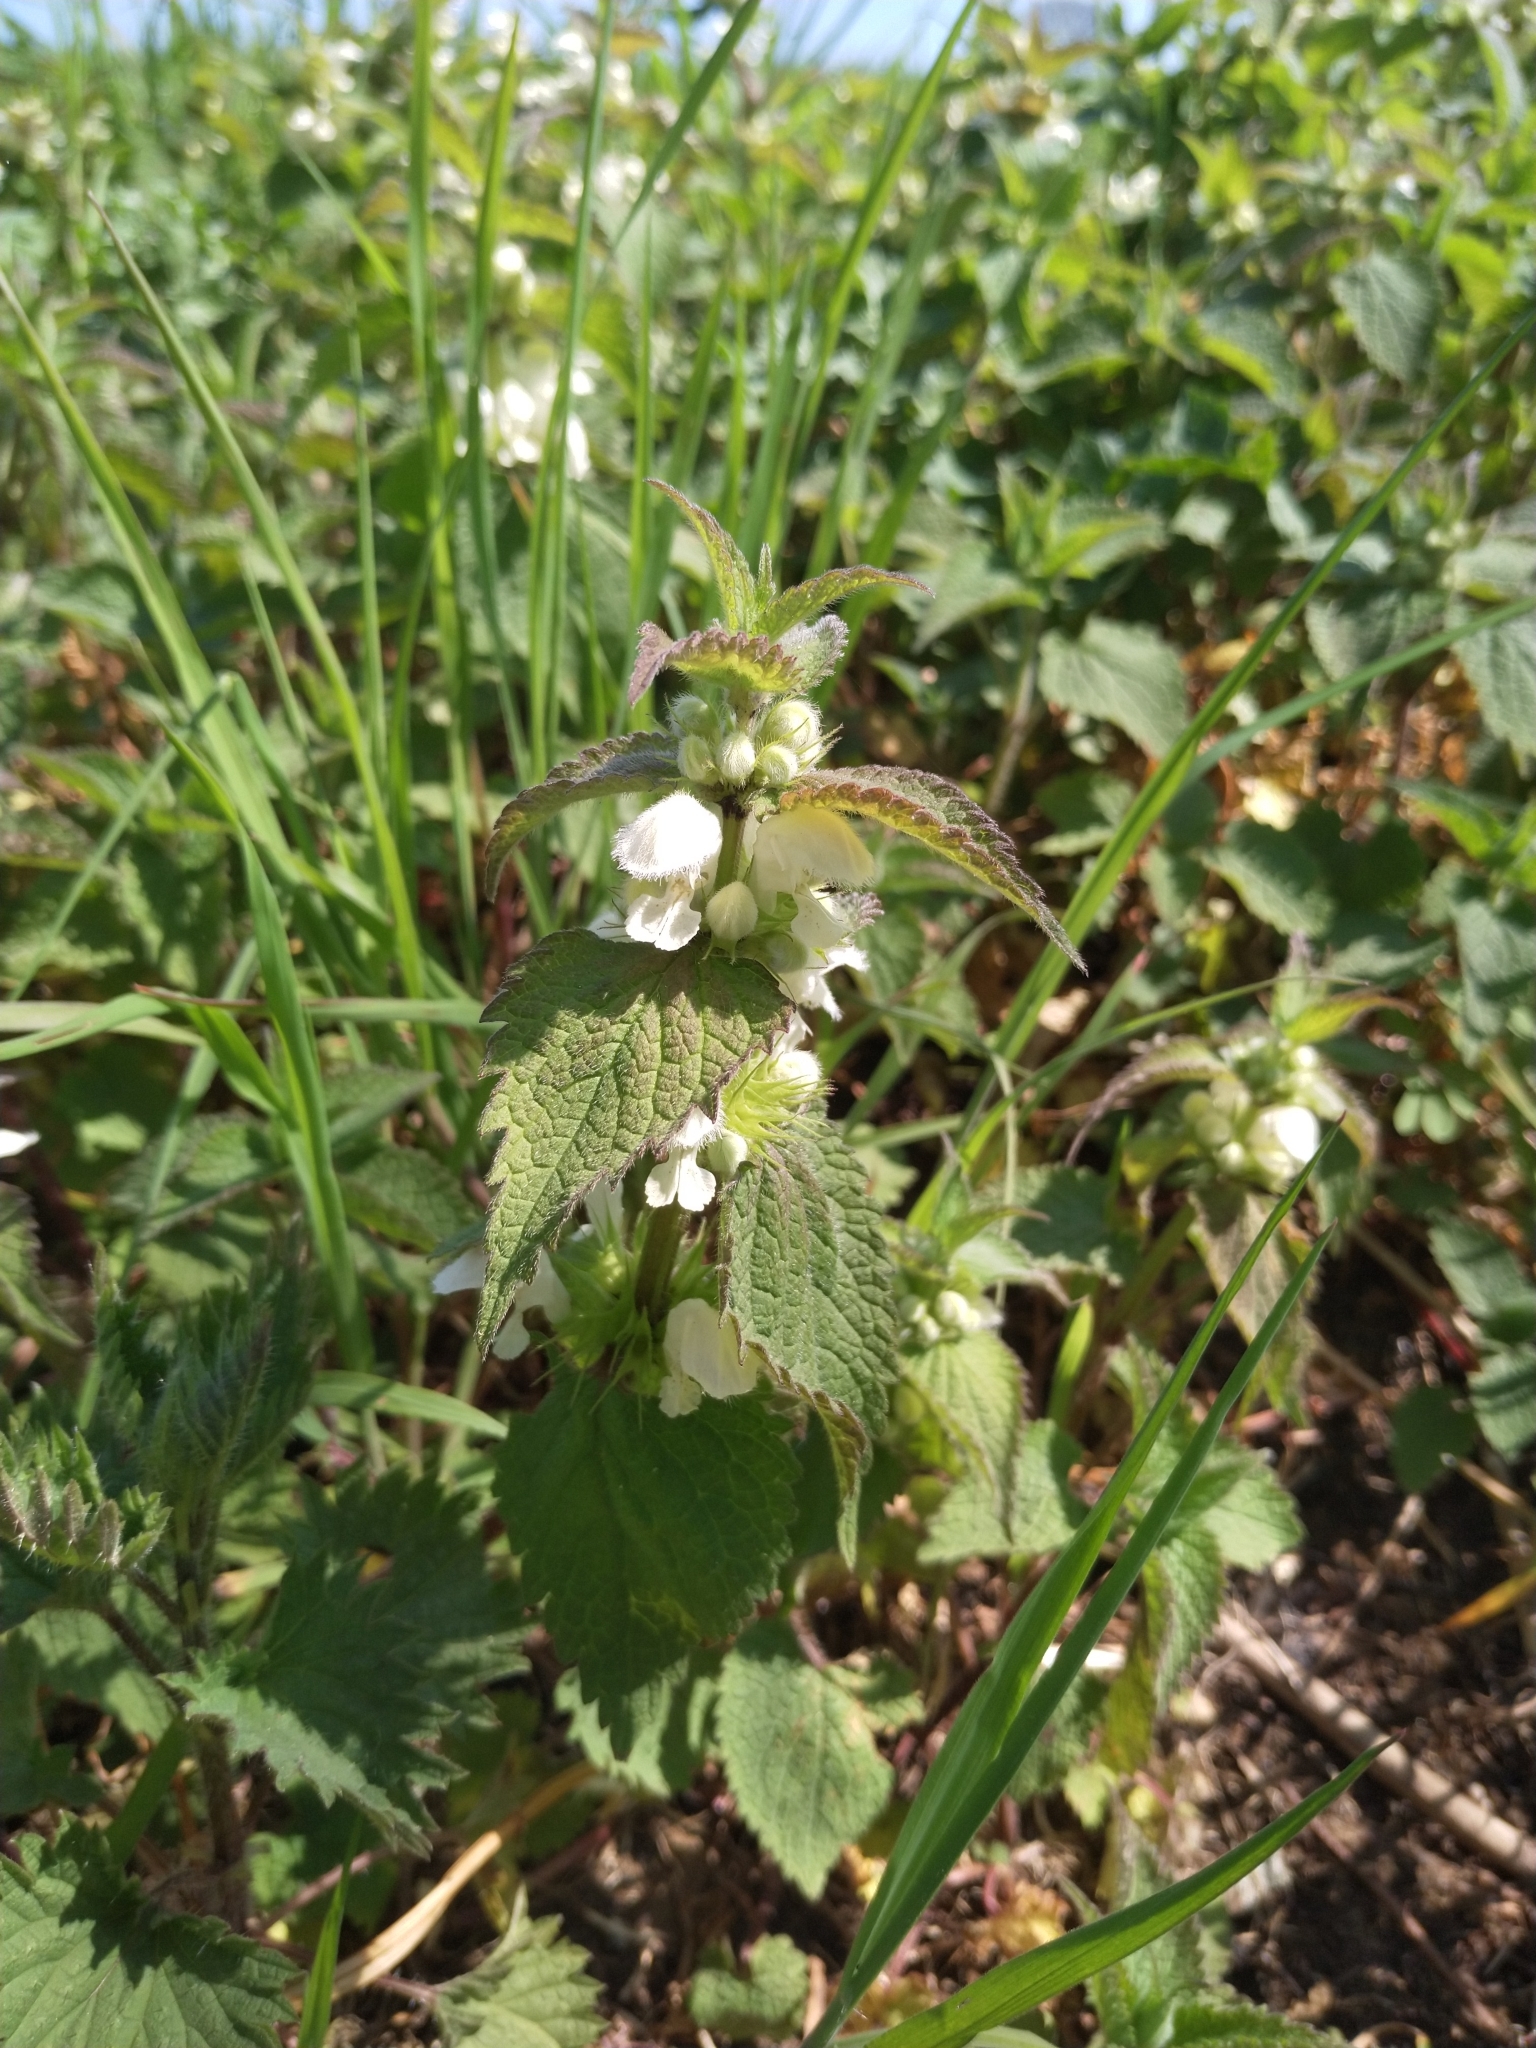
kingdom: Plantae
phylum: Tracheophyta
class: Magnoliopsida
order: Lamiales
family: Lamiaceae
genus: Lamium
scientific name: Lamium album
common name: White dead-nettle
